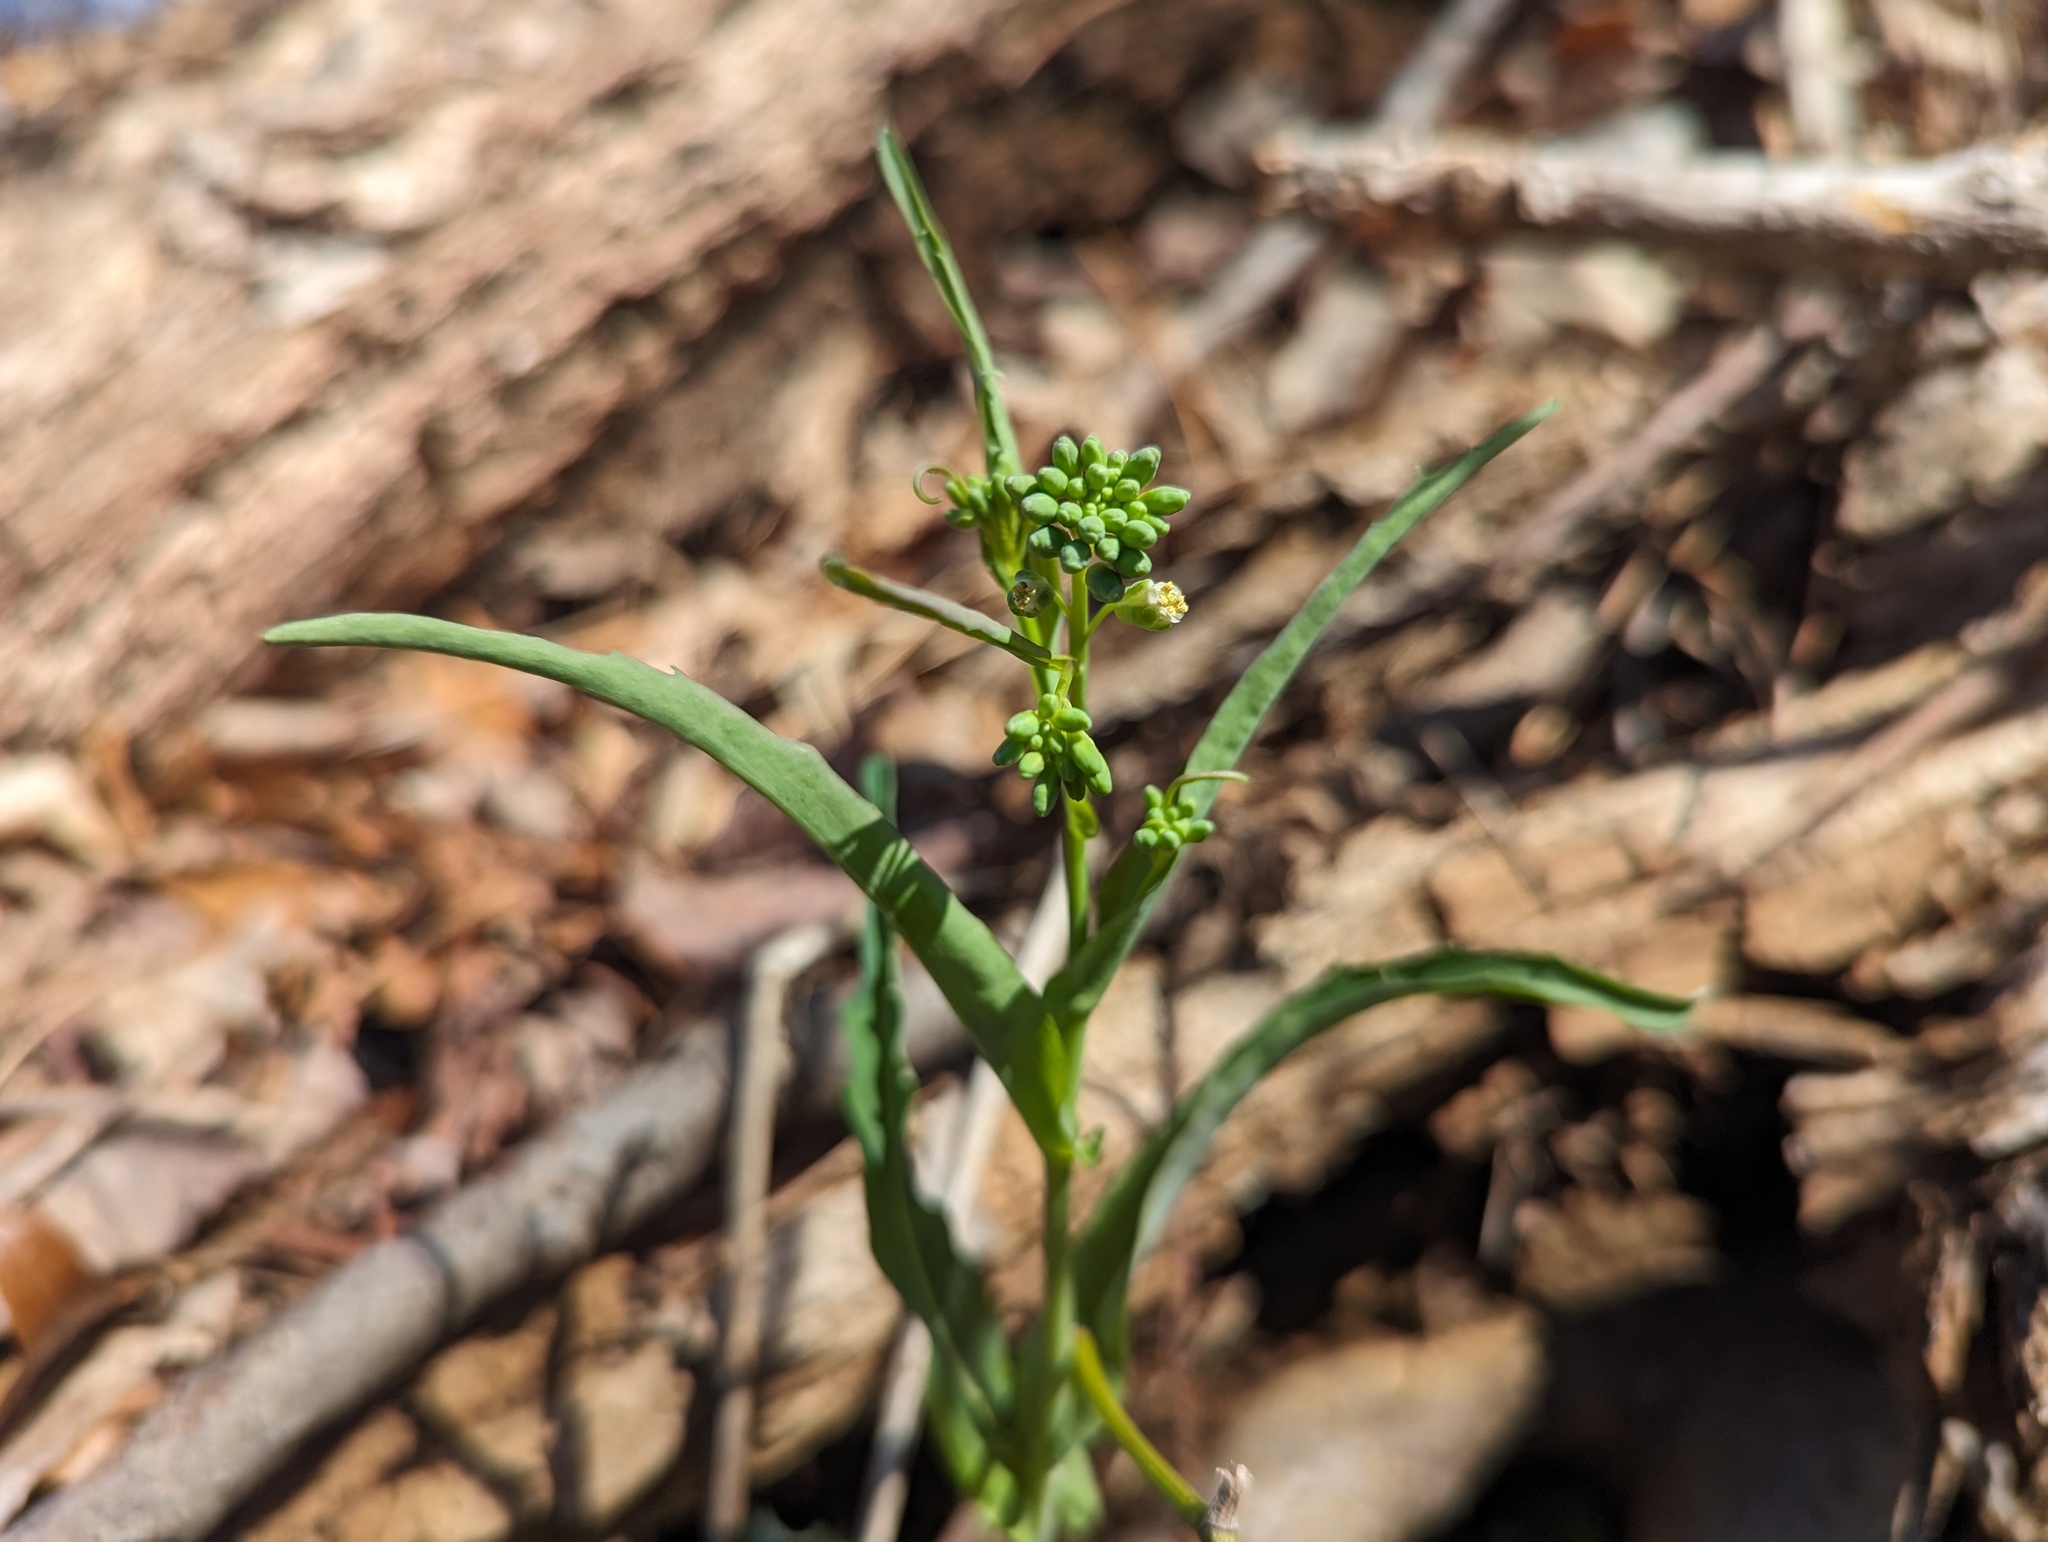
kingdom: Plantae
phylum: Tracheophyta
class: Magnoliopsida
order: Brassicales
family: Brassicaceae
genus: Borodinia
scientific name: Borodinia laevigata
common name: Smooth rockcress
